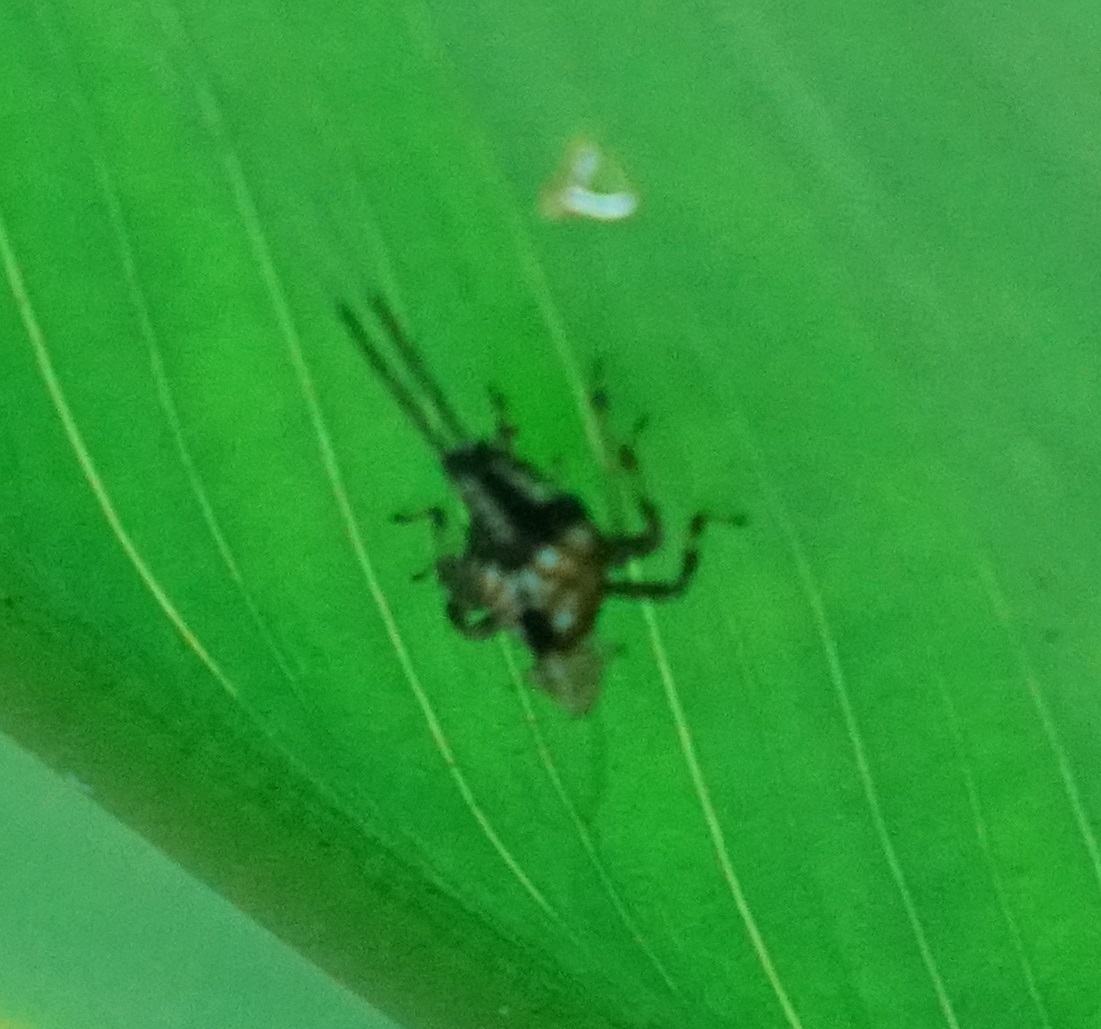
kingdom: Animalia
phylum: Arthropoda
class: Insecta
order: Hemiptera
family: Lophopidae
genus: Magia
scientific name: Magia subocellata
